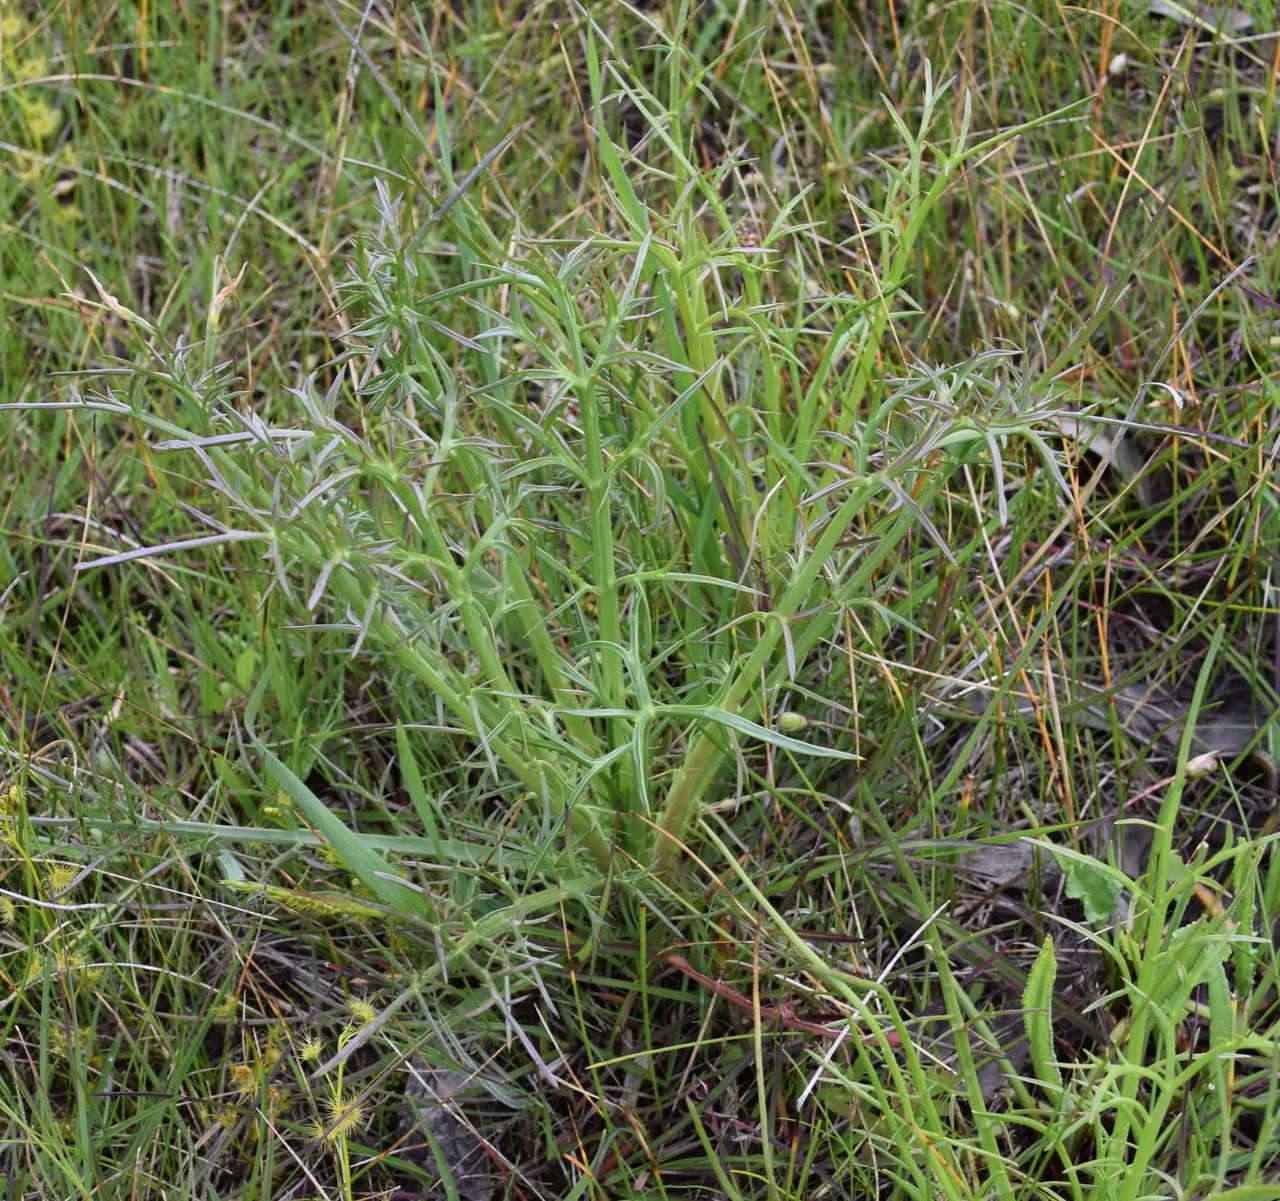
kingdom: Plantae
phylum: Tracheophyta
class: Magnoliopsida
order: Apiales
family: Apiaceae
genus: Eryngium
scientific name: Eryngium ovinum
